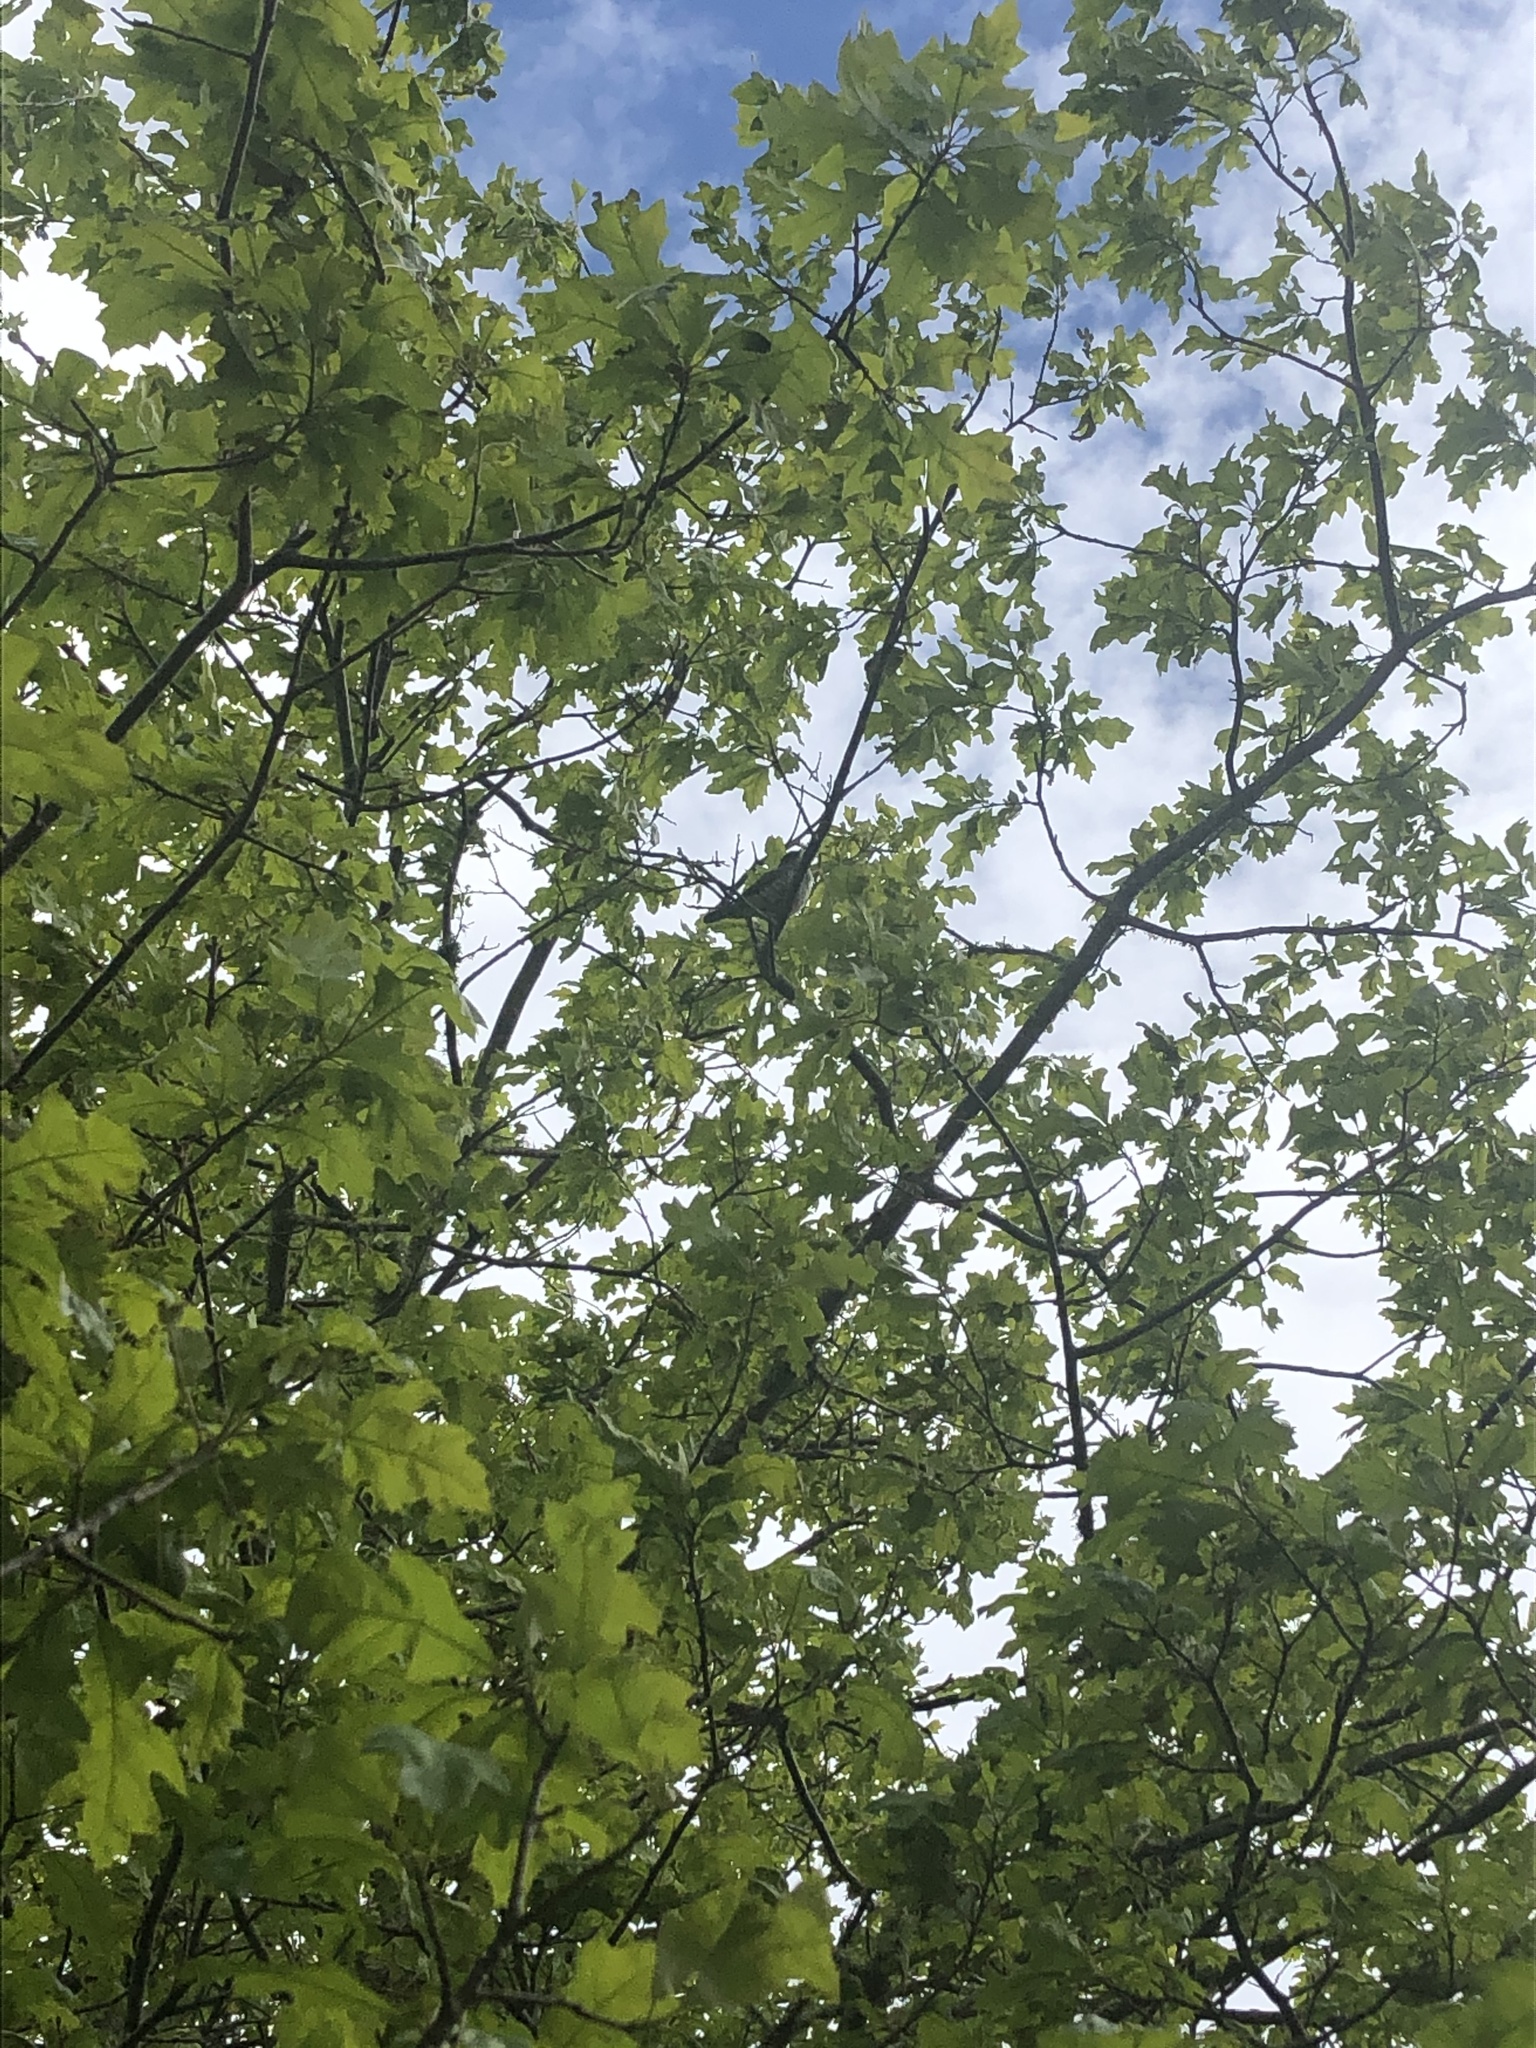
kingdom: Animalia
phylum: Chordata
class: Aves
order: Cuculiformes
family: Cuculidae
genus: Chrysococcyx
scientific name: Chrysococcyx lucidus
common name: Shining bronze cuckoo
